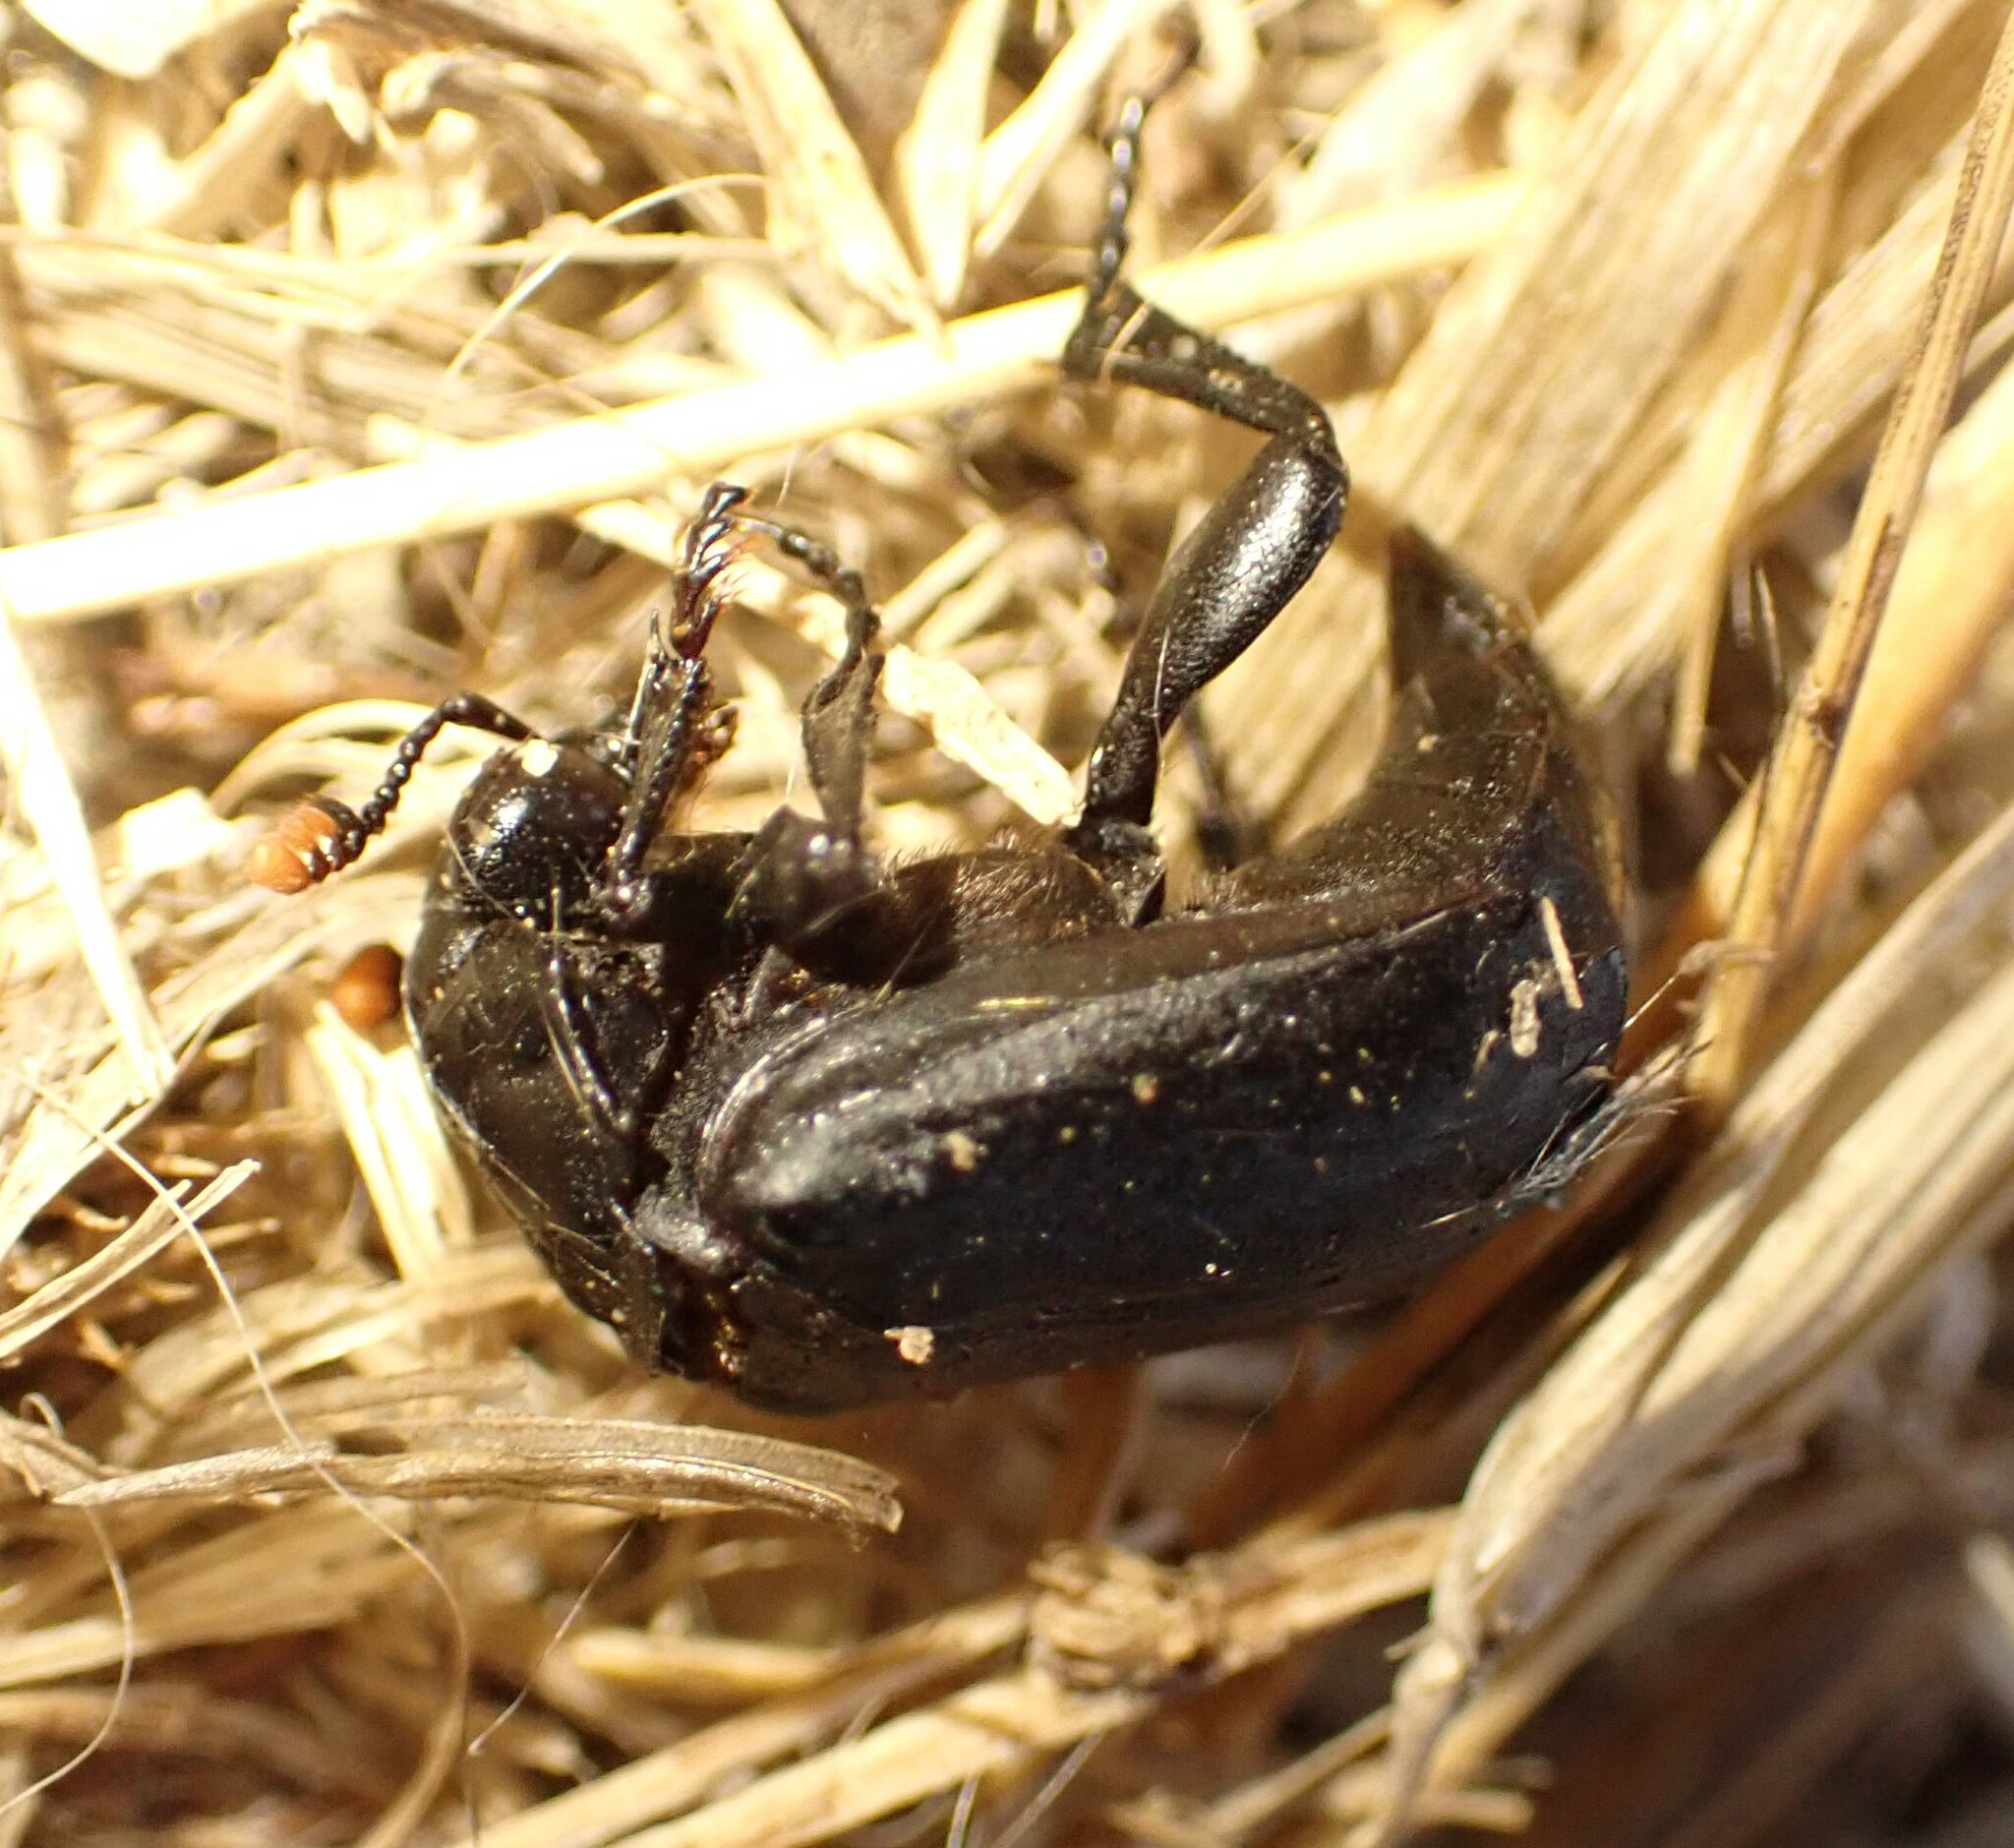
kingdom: Animalia
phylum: Arthropoda
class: Insecta
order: Coleoptera
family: Staphylinidae
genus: Nicrophorus
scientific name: Nicrophorus nigrita
